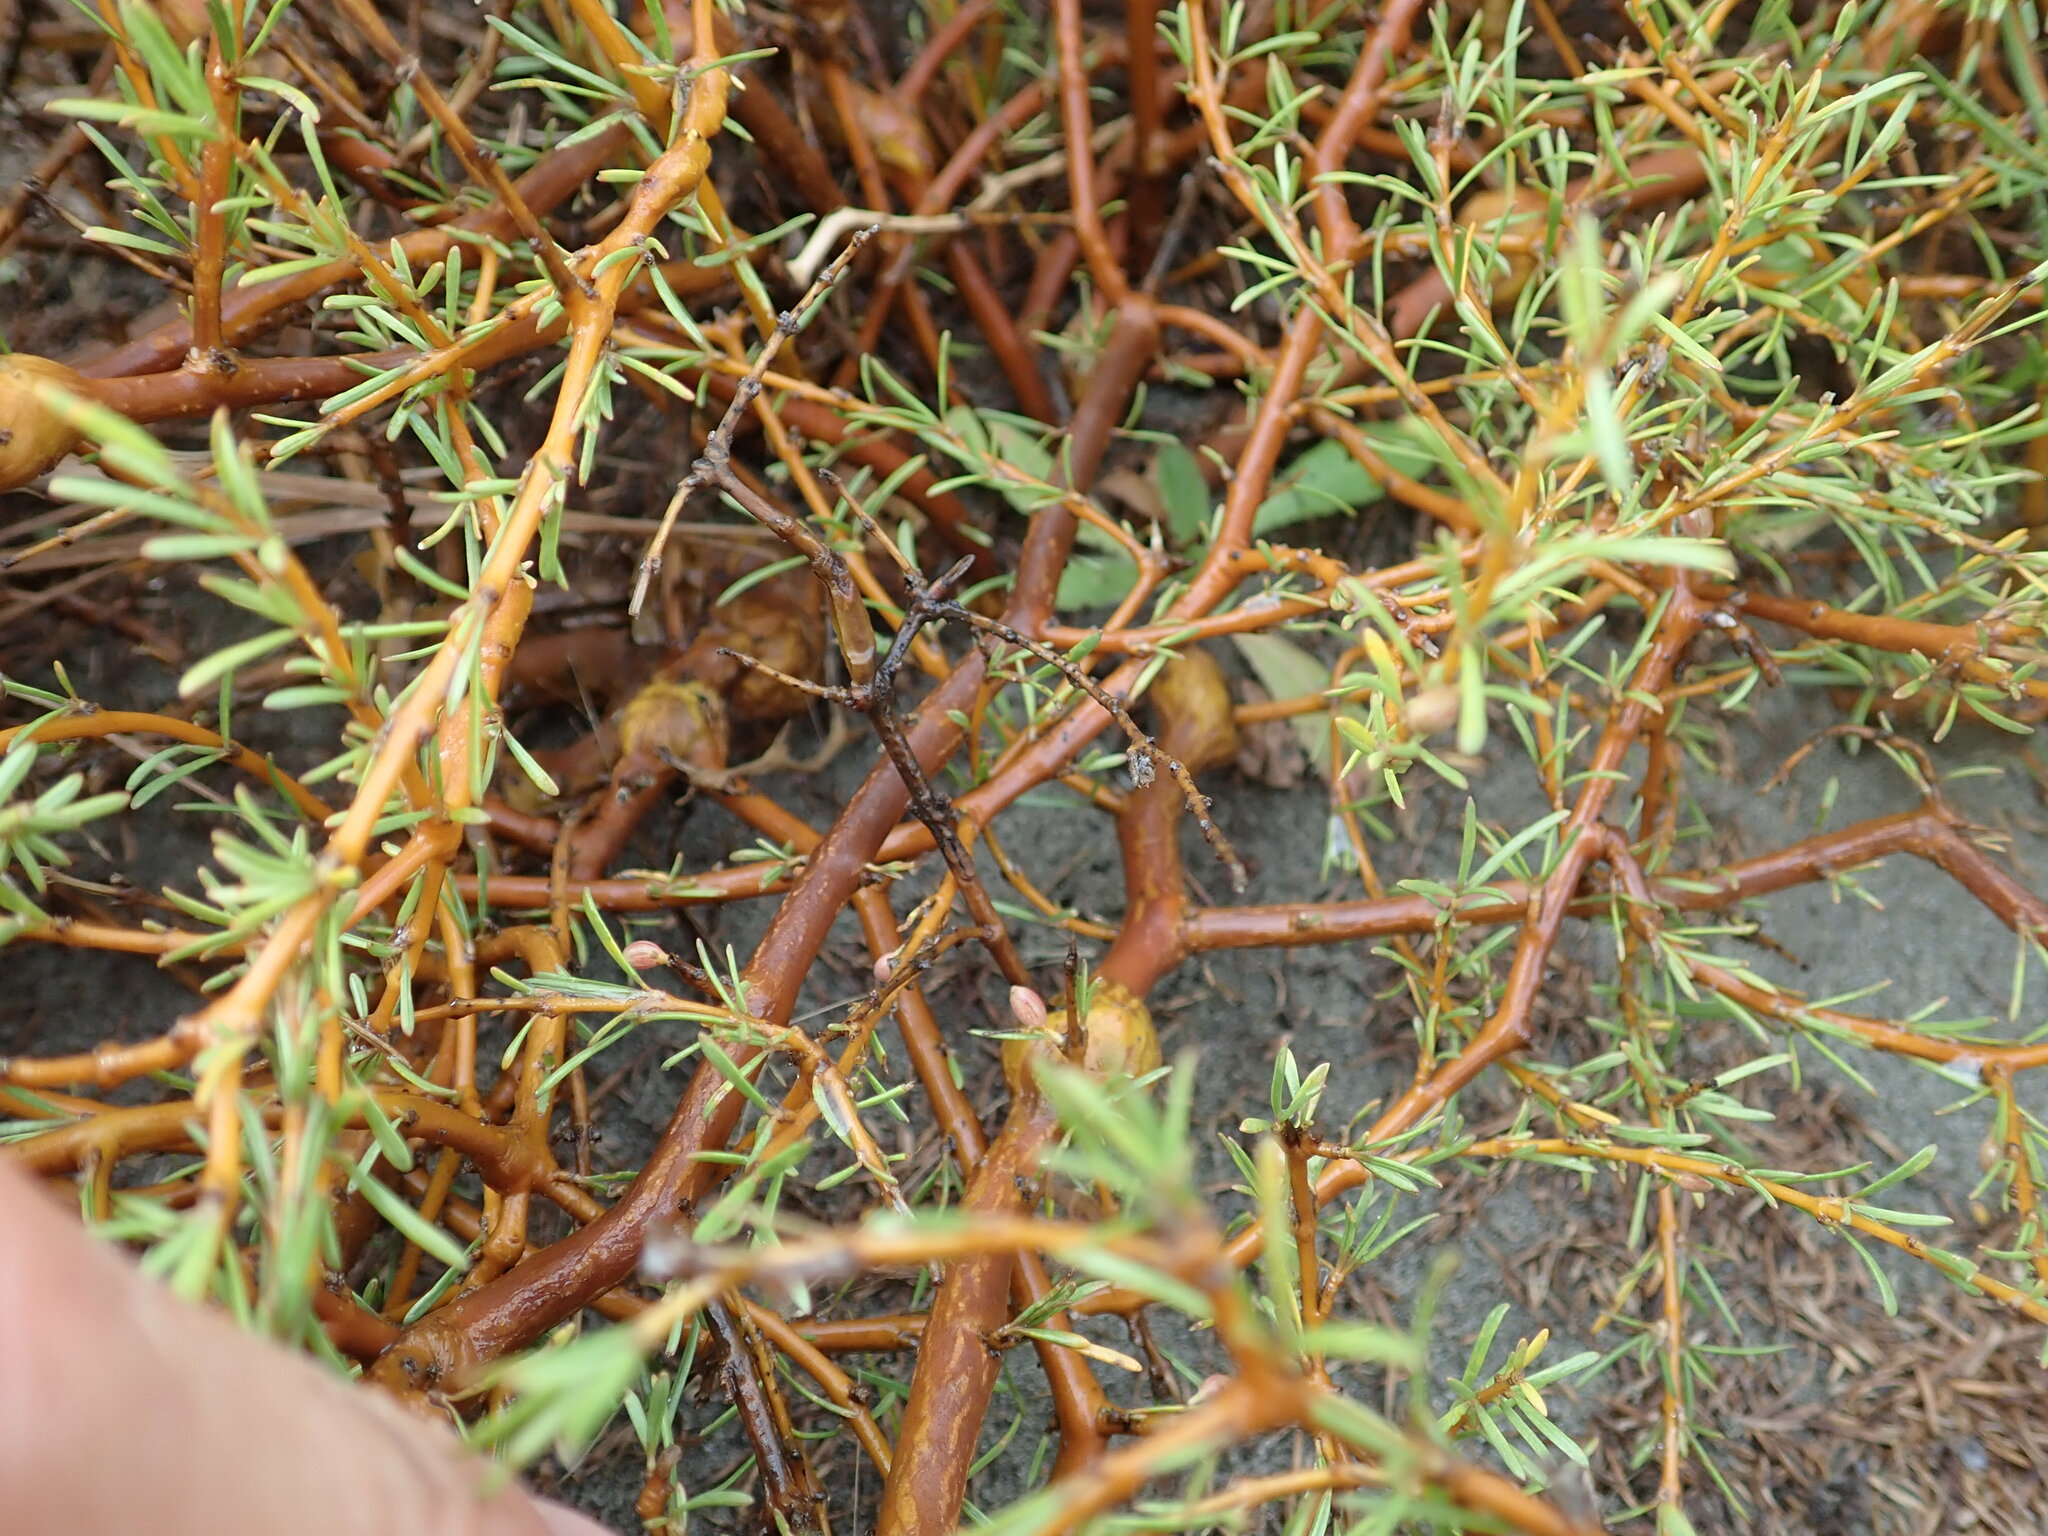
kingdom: Plantae
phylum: Tracheophyta
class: Magnoliopsida
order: Gentianales
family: Rubiaceae
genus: Coprosma
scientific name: Coprosma acerosa
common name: Sand coprosma
